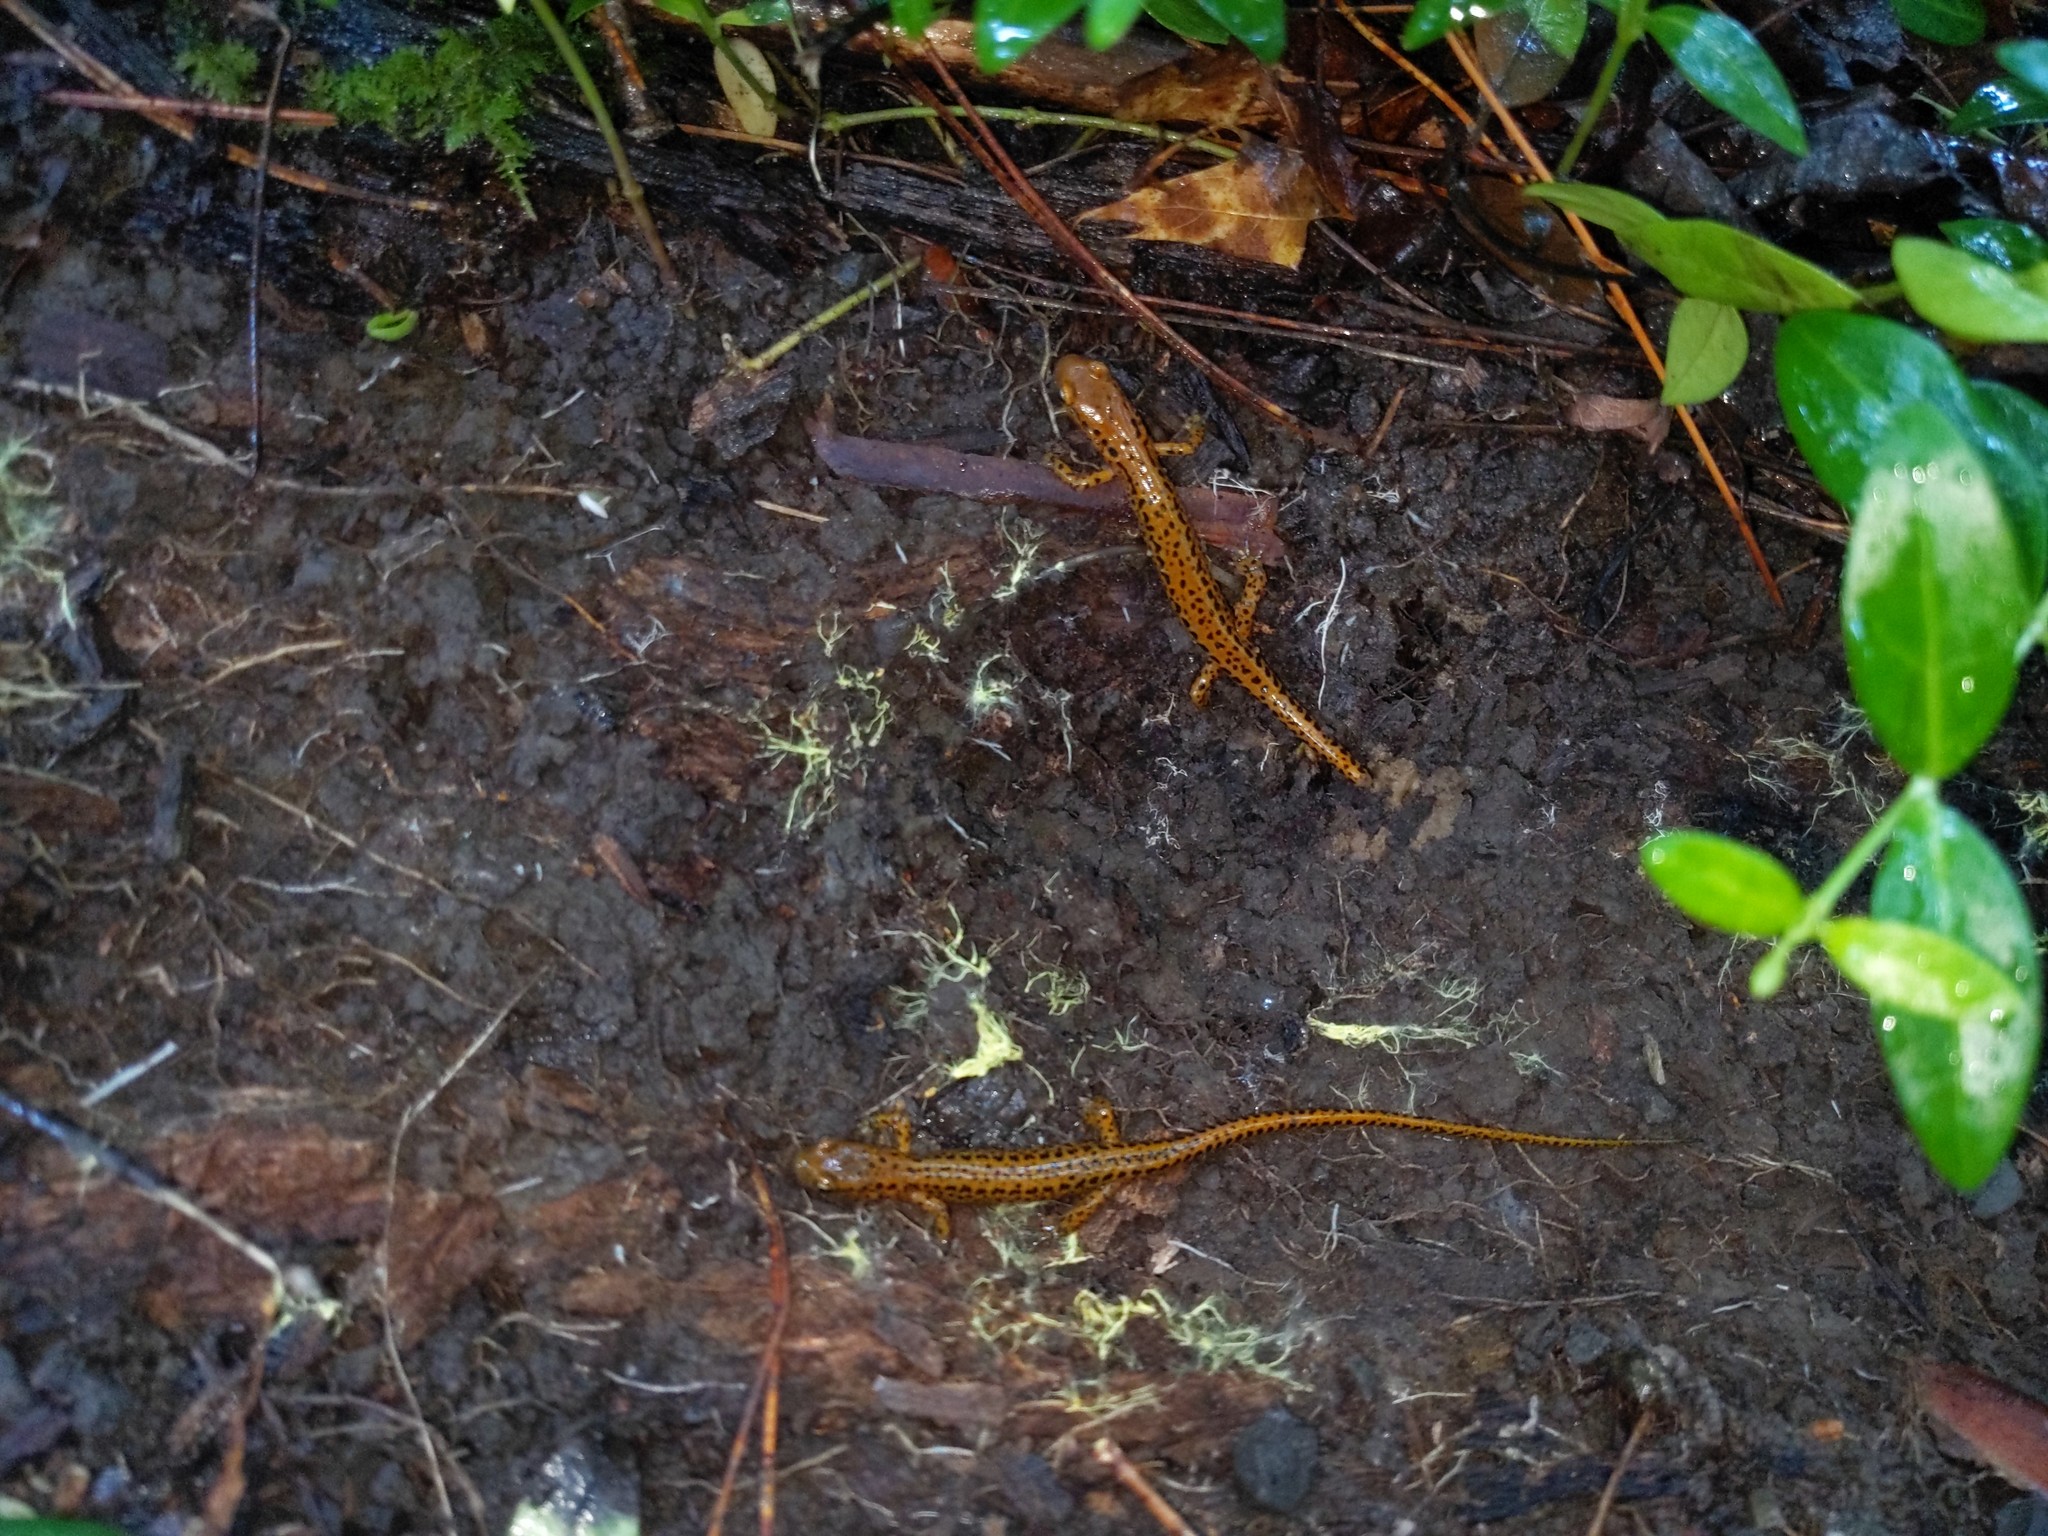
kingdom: Animalia
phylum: Chordata
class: Amphibia
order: Caudata
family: Plethodontidae
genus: Eurycea
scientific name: Eurycea longicauda
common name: Long-tailed salamander
